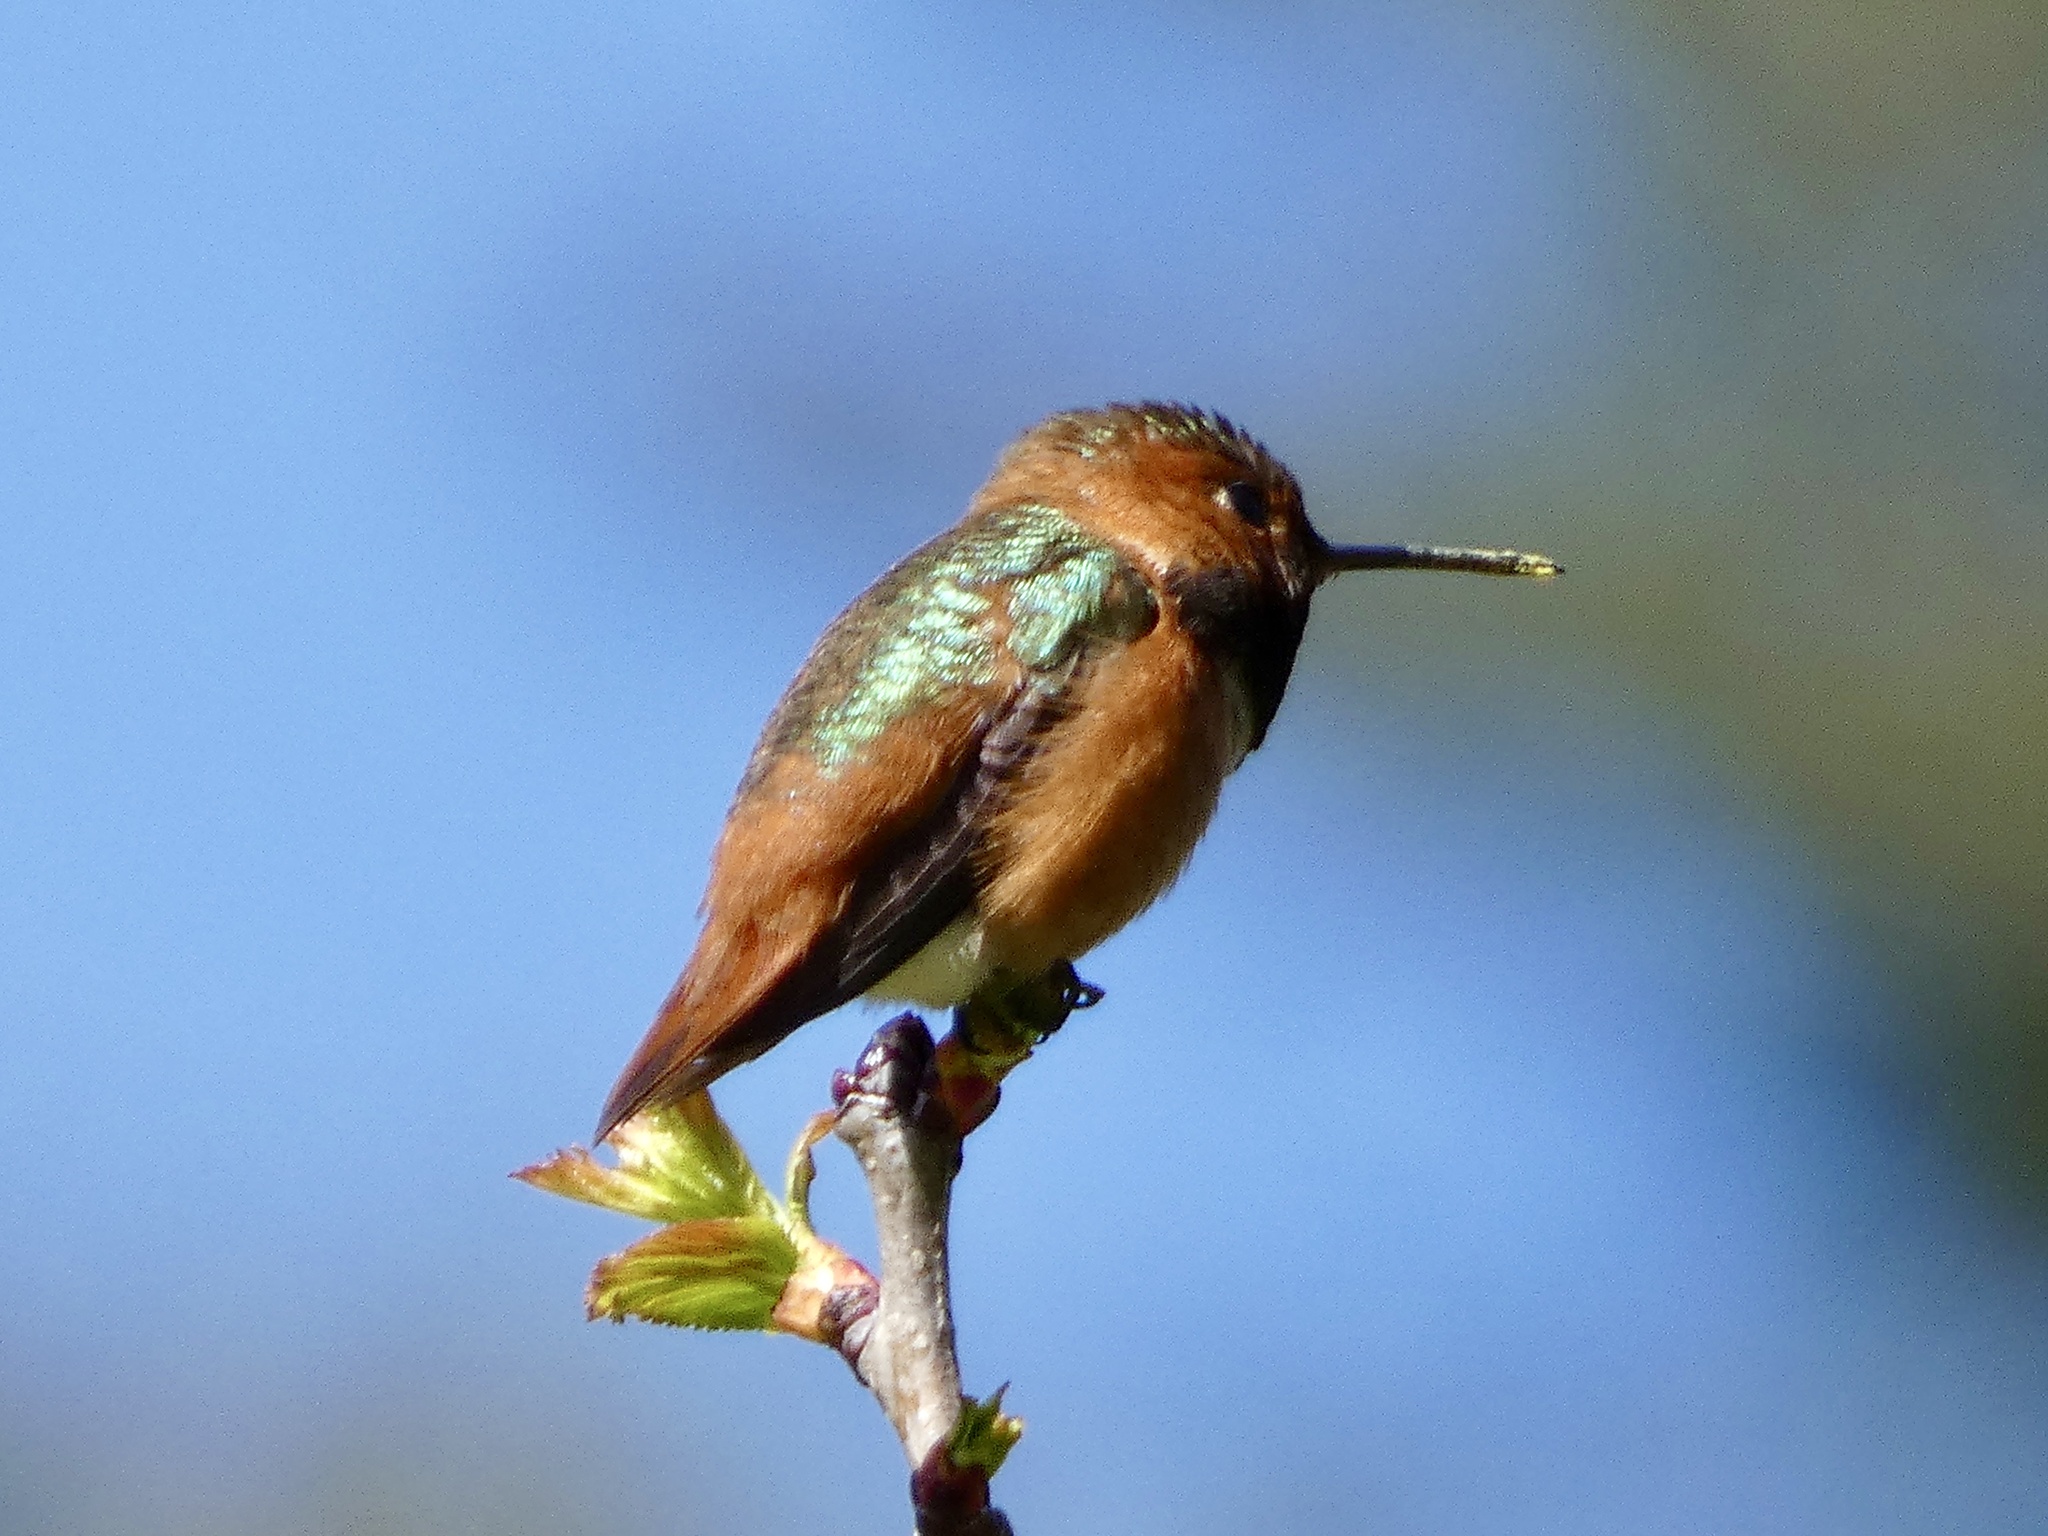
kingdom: Animalia
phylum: Chordata
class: Aves
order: Apodiformes
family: Trochilidae
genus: Selasphorus
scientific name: Selasphorus sasin
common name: Allen's hummingbird
